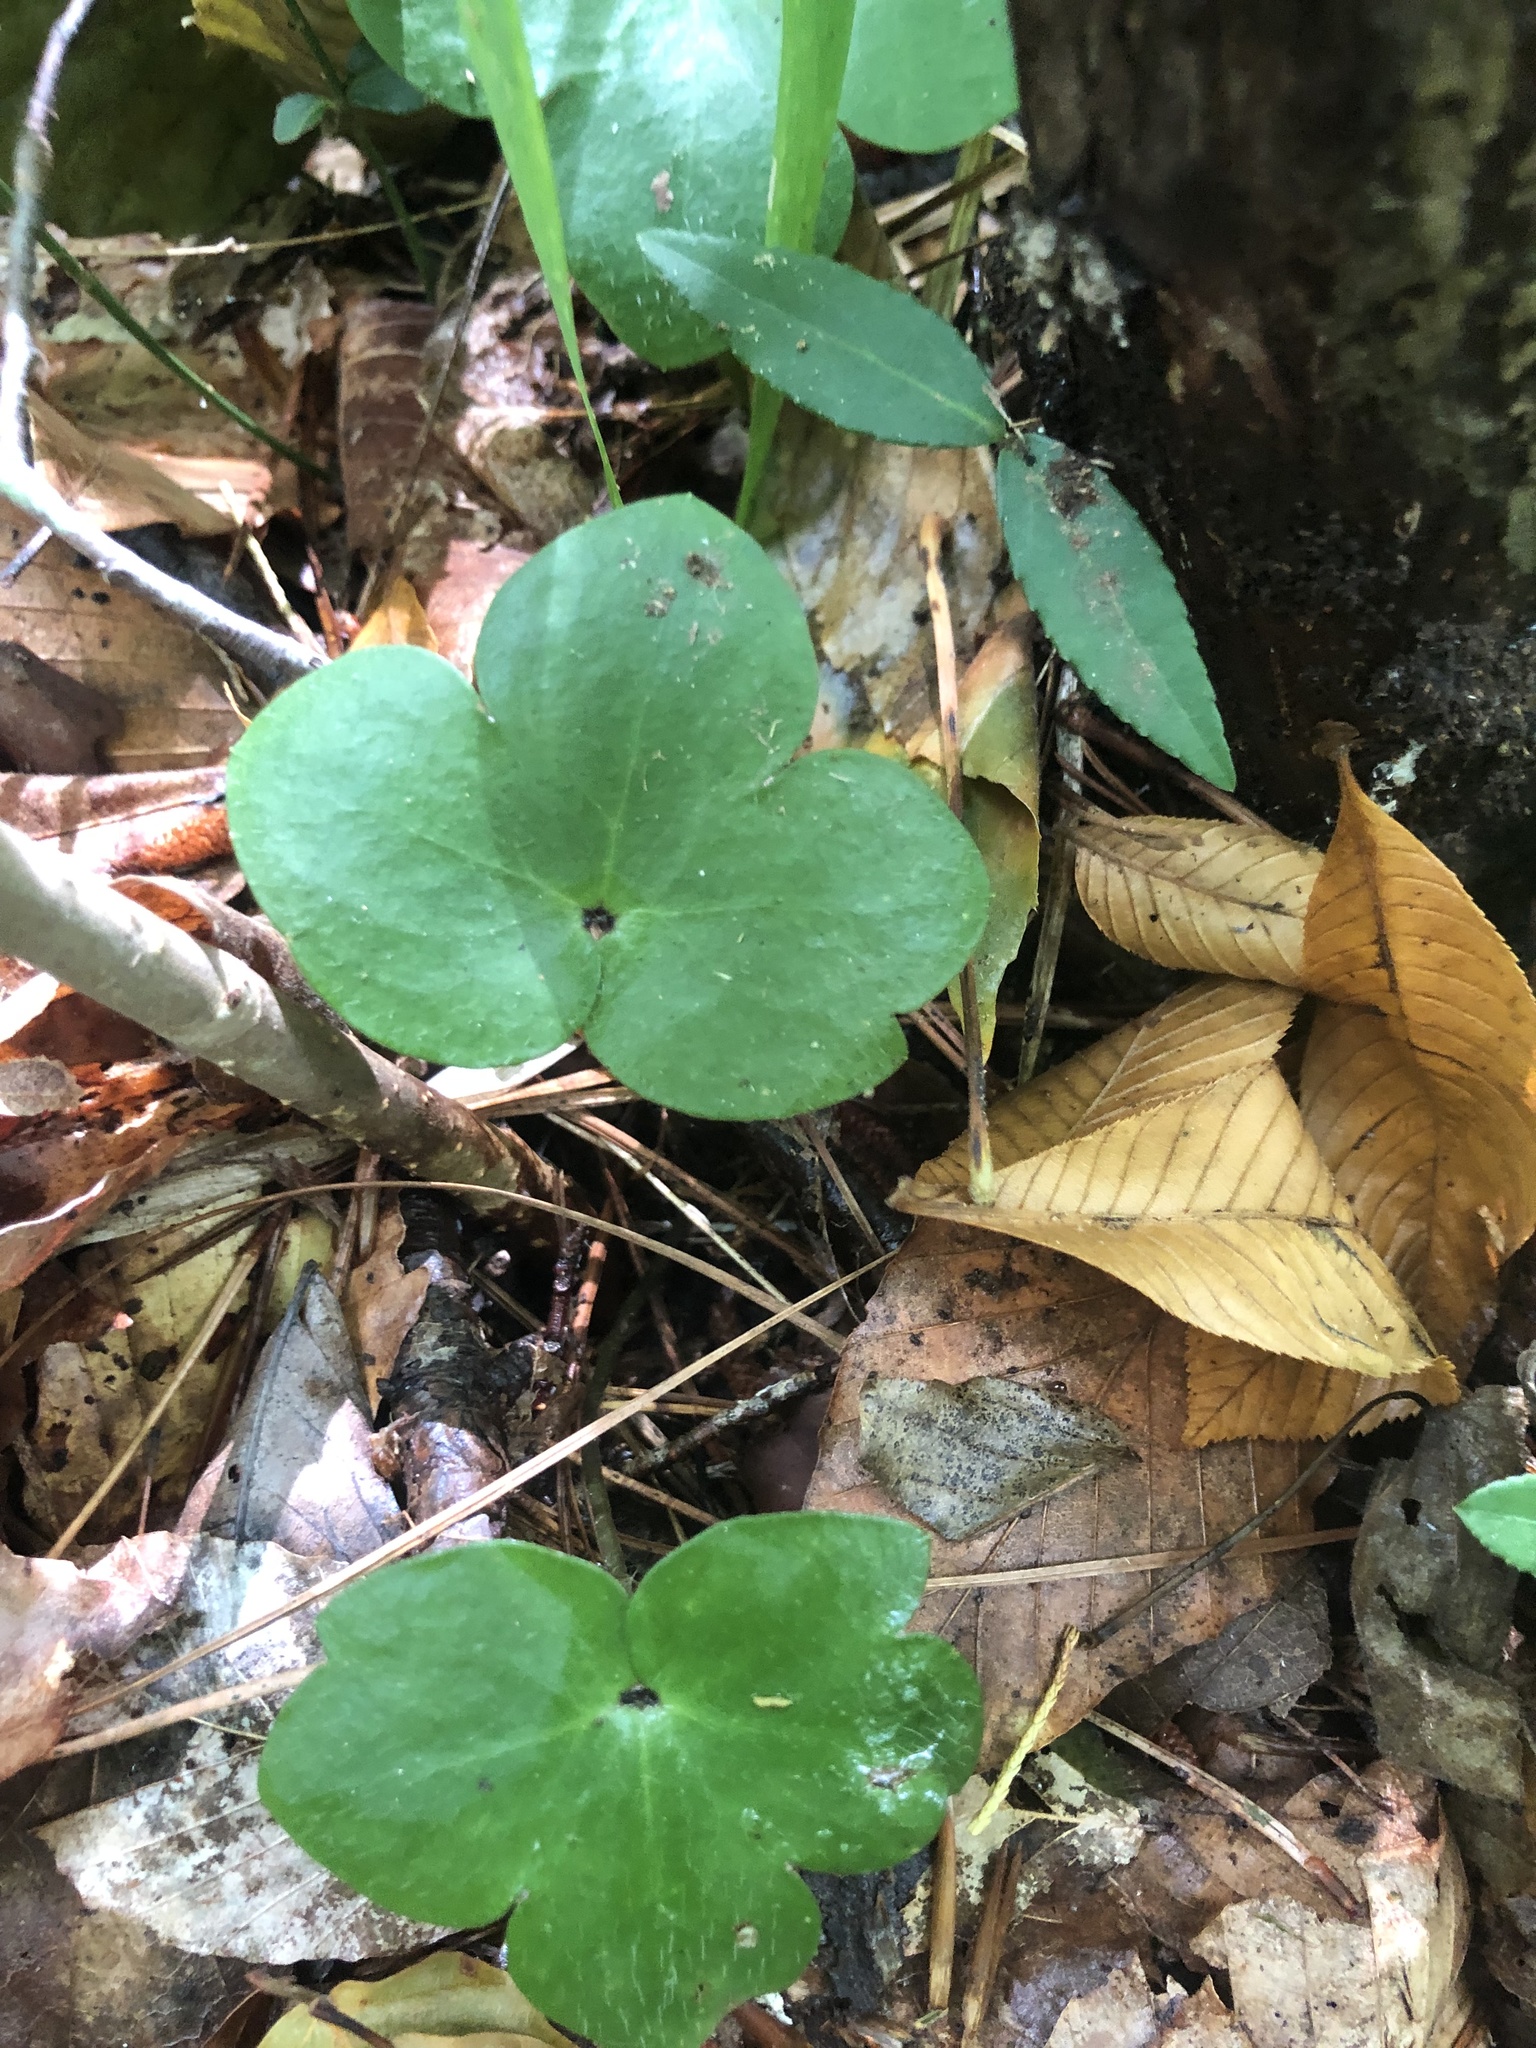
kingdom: Plantae
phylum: Tracheophyta
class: Magnoliopsida
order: Ranunculales
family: Ranunculaceae
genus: Hepatica
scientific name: Hepatica americana
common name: American hepatica
